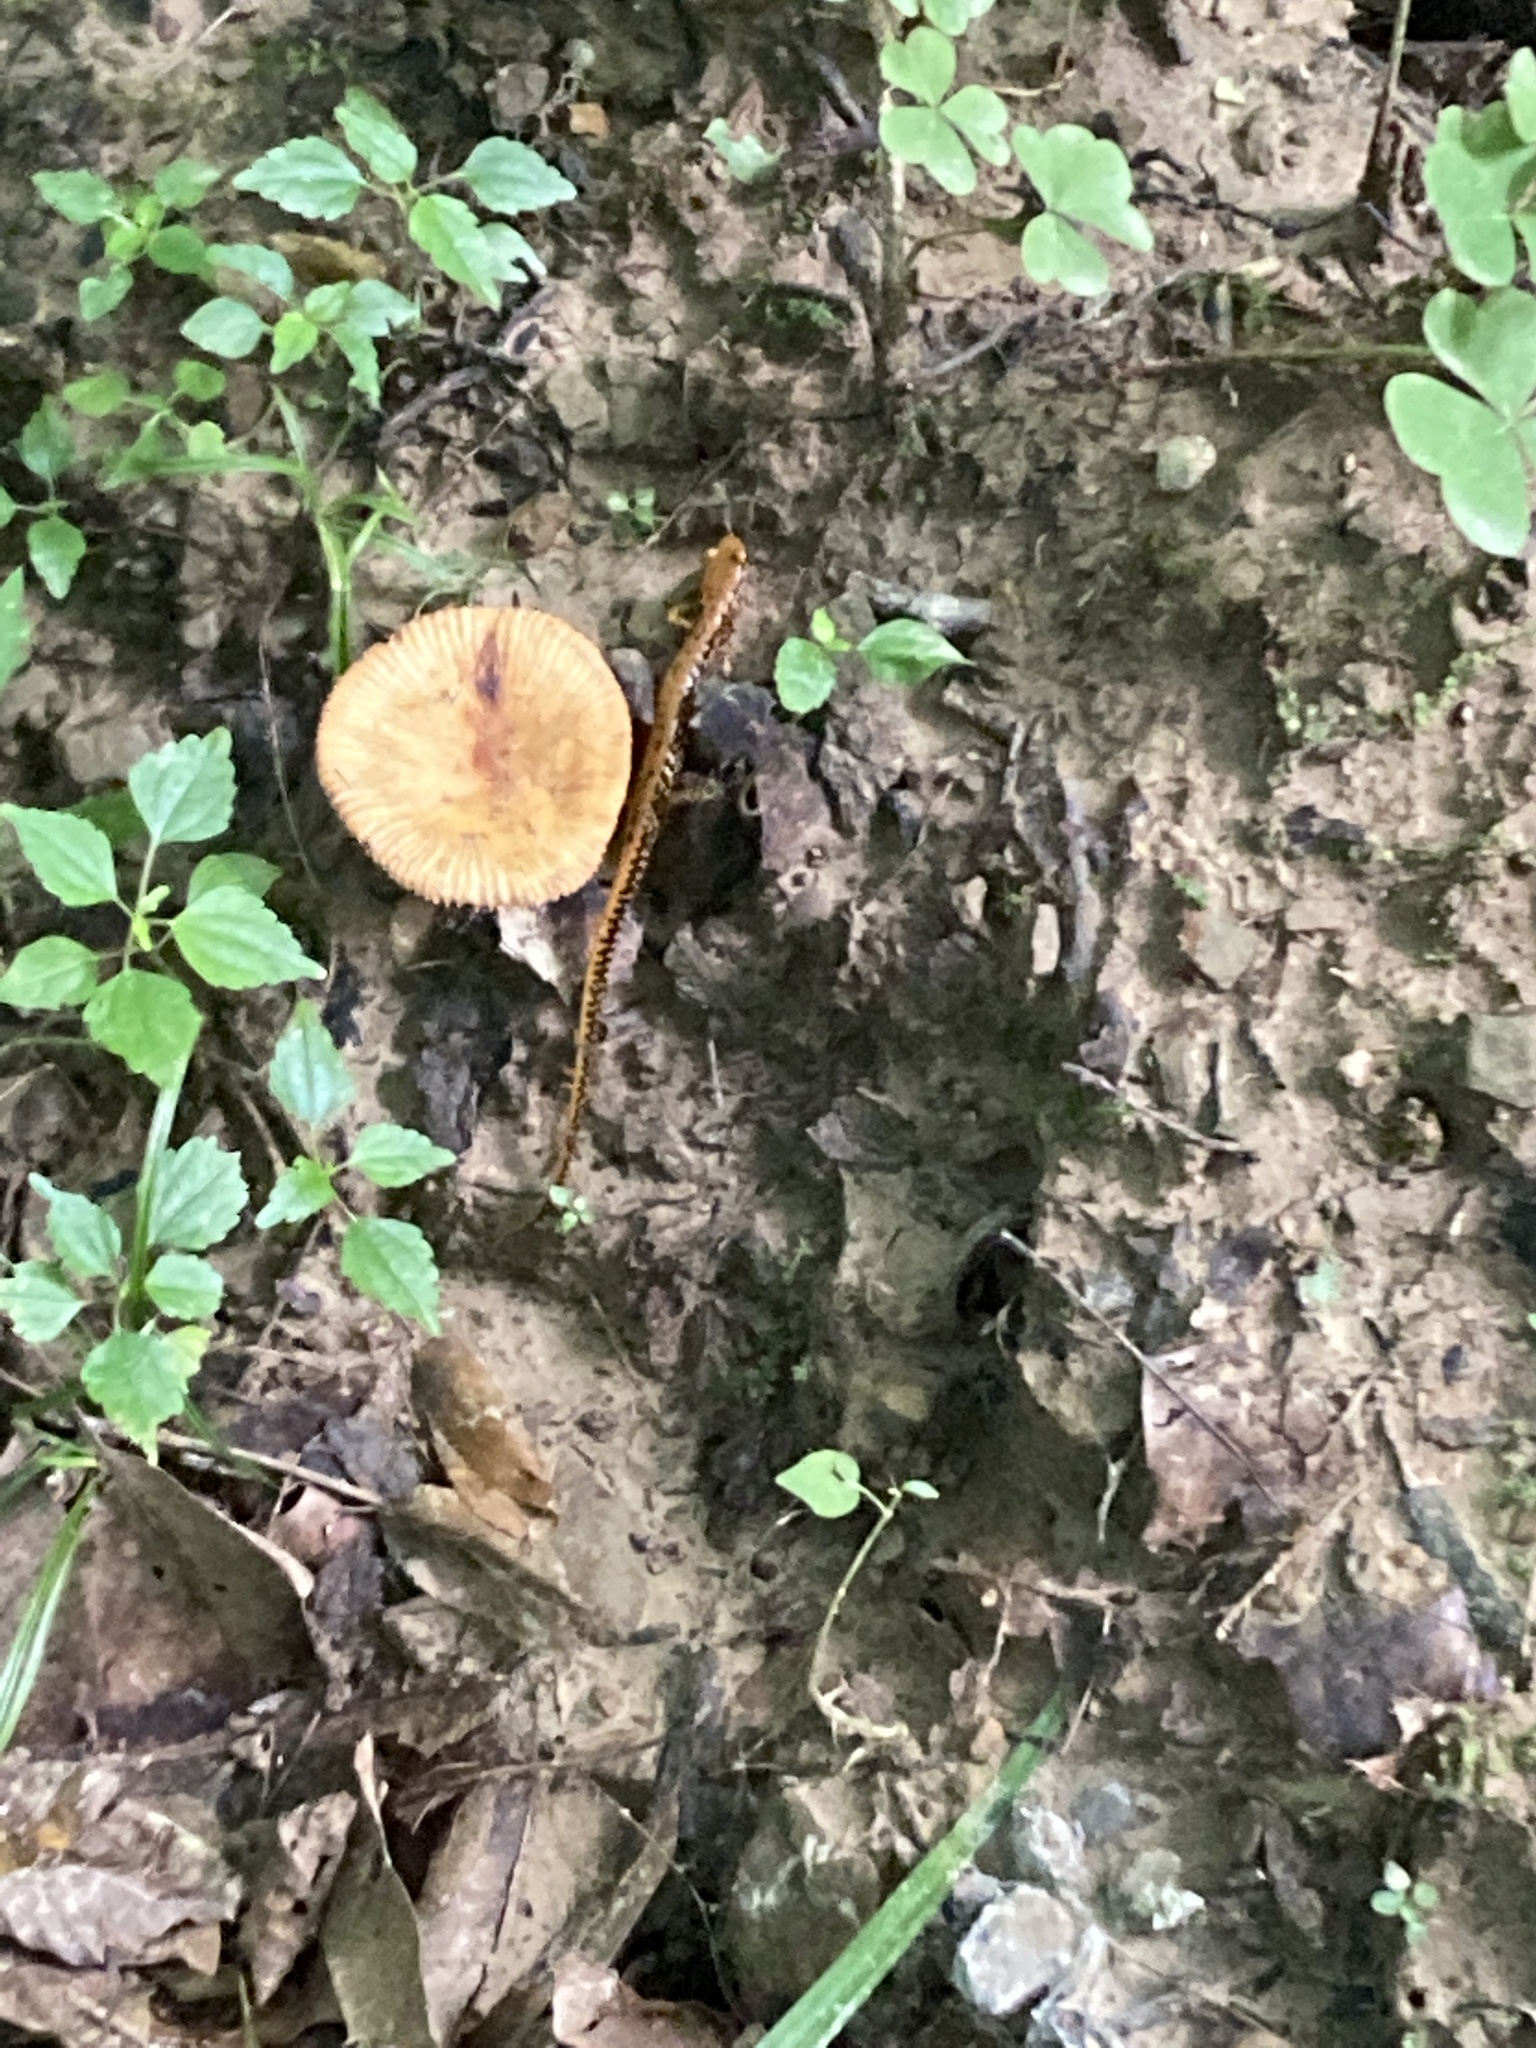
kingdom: Animalia
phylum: Chordata
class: Amphibia
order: Caudata
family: Plethodontidae
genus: Eurycea
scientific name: Eurycea longicauda
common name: Long-tailed salamander
